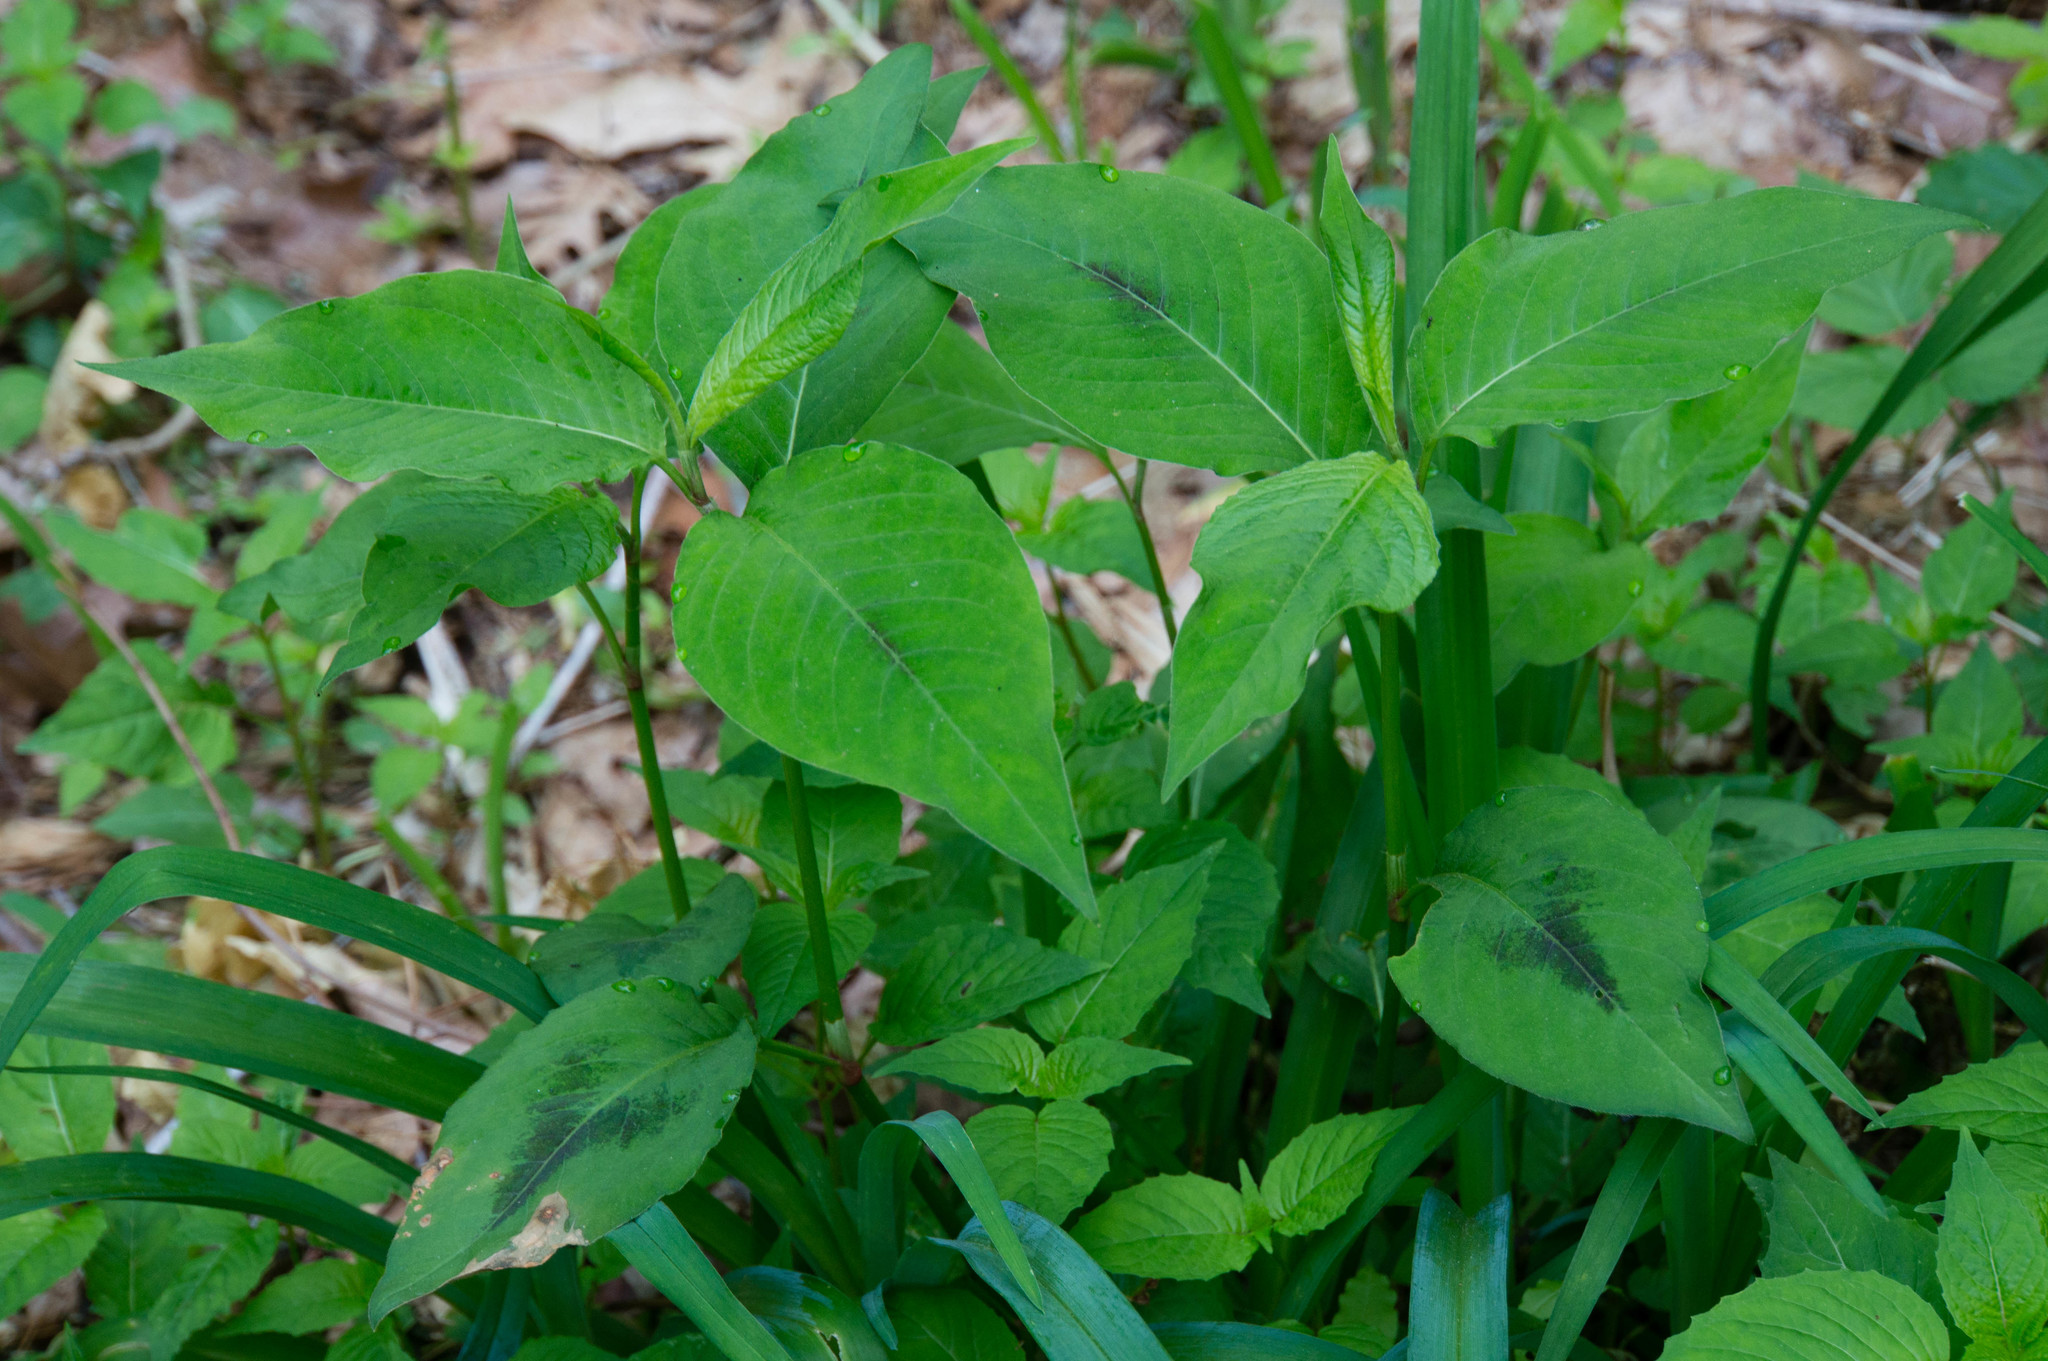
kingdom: Plantae
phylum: Tracheophyta
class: Magnoliopsida
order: Caryophyllales
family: Polygonaceae
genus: Persicaria
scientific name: Persicaria virginiana
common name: Jumpseed
